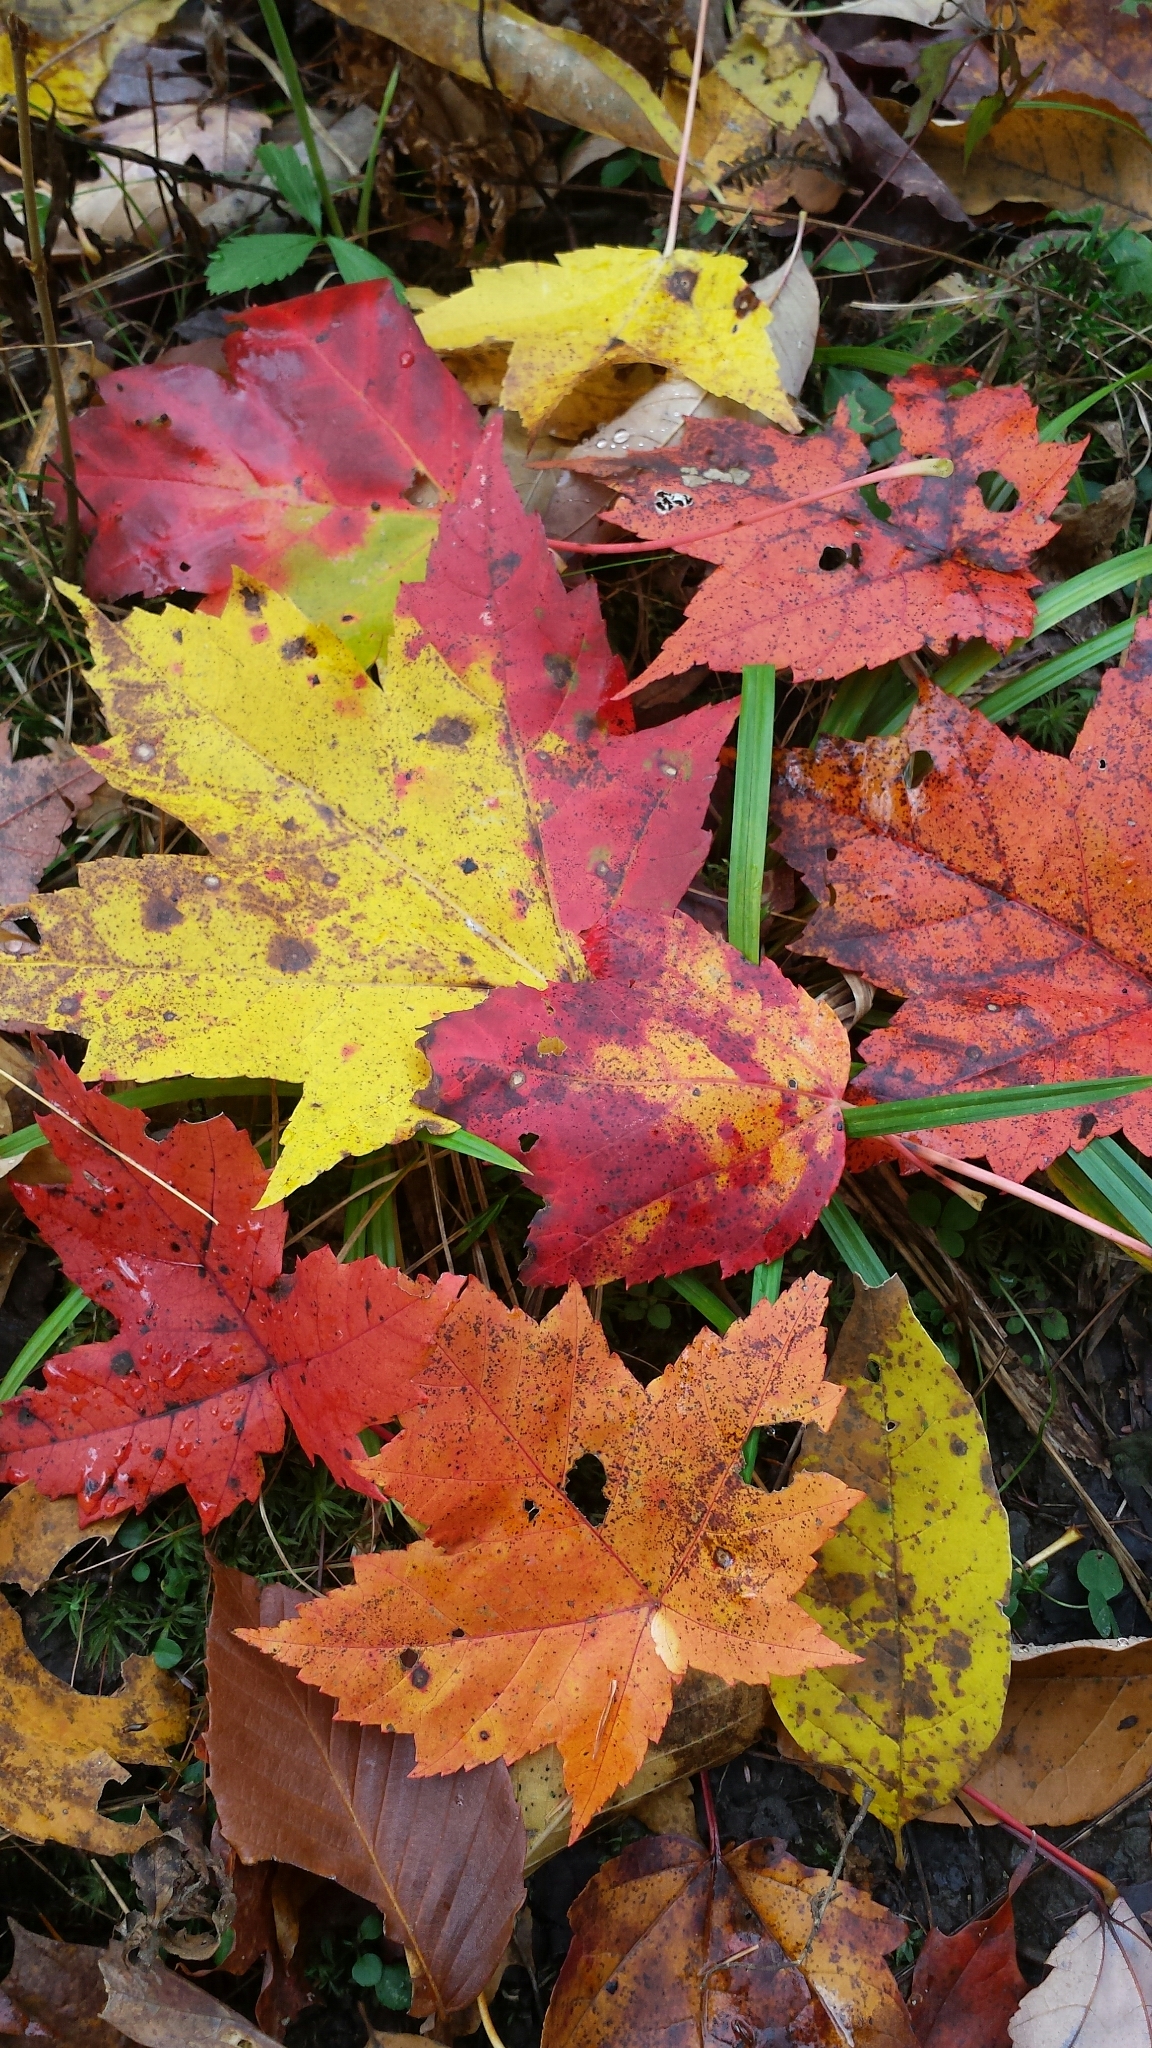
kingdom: Plantae
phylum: Tracheophyta
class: Magnoliopsida
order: Sapindales
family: Sapindaceae
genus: Acer
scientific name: Acer rubrum
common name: Red maple
